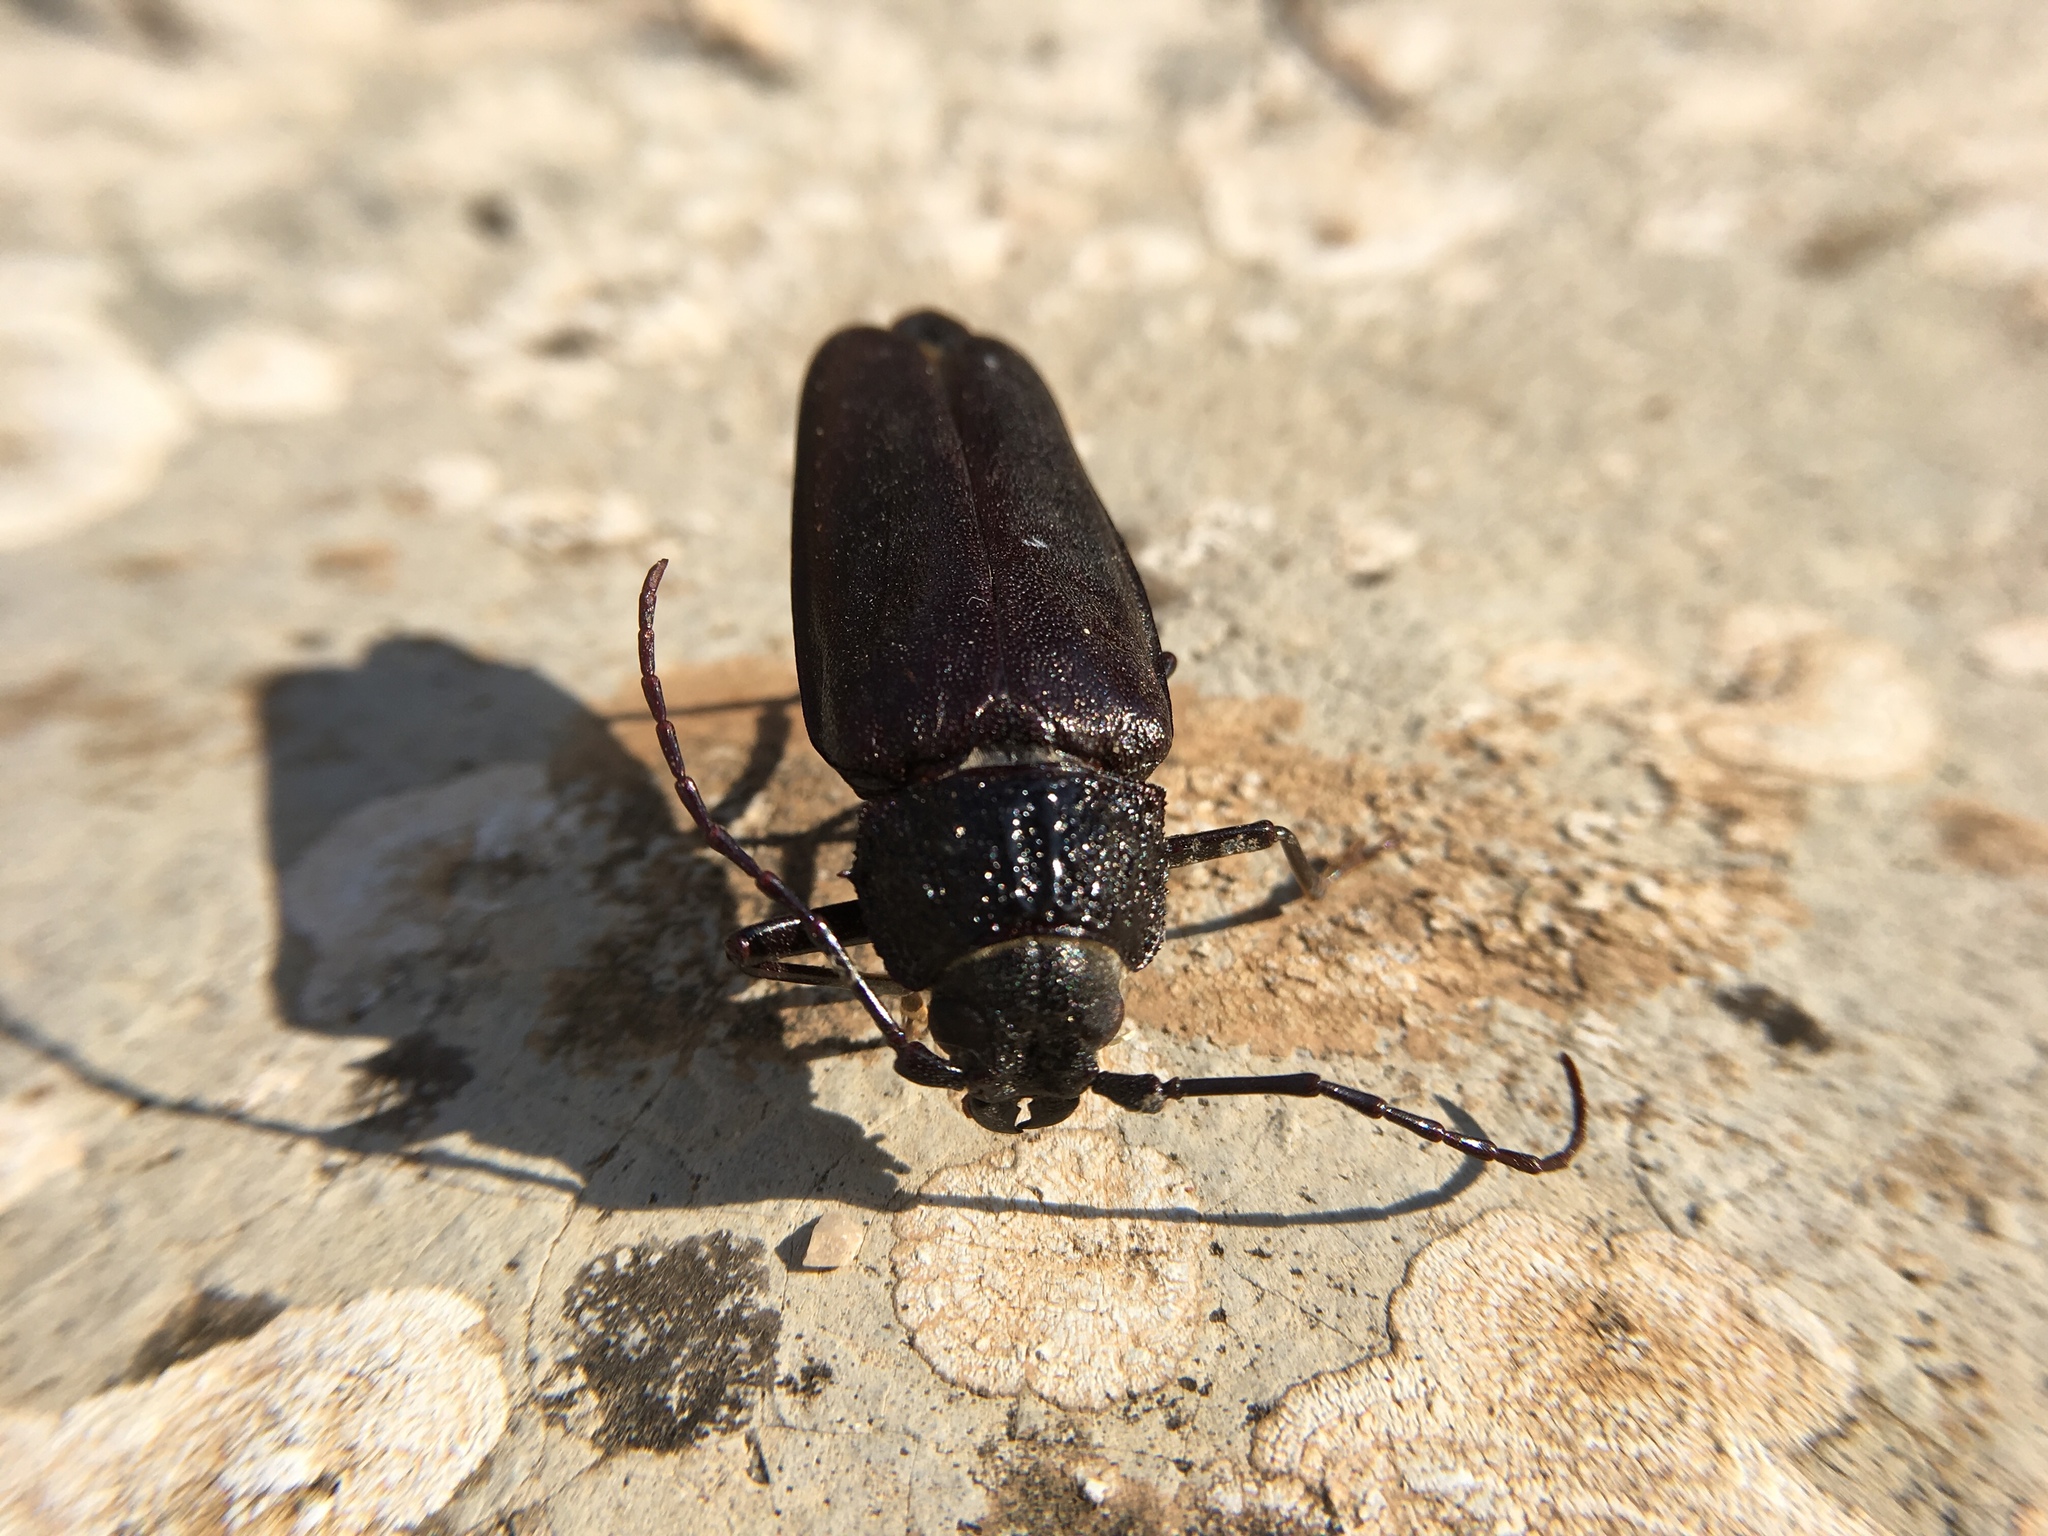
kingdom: Animalia
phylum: Arthropoda
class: Insecta
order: Coleoptera
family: Cerambycidae
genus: Ergates
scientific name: Ergates faber
